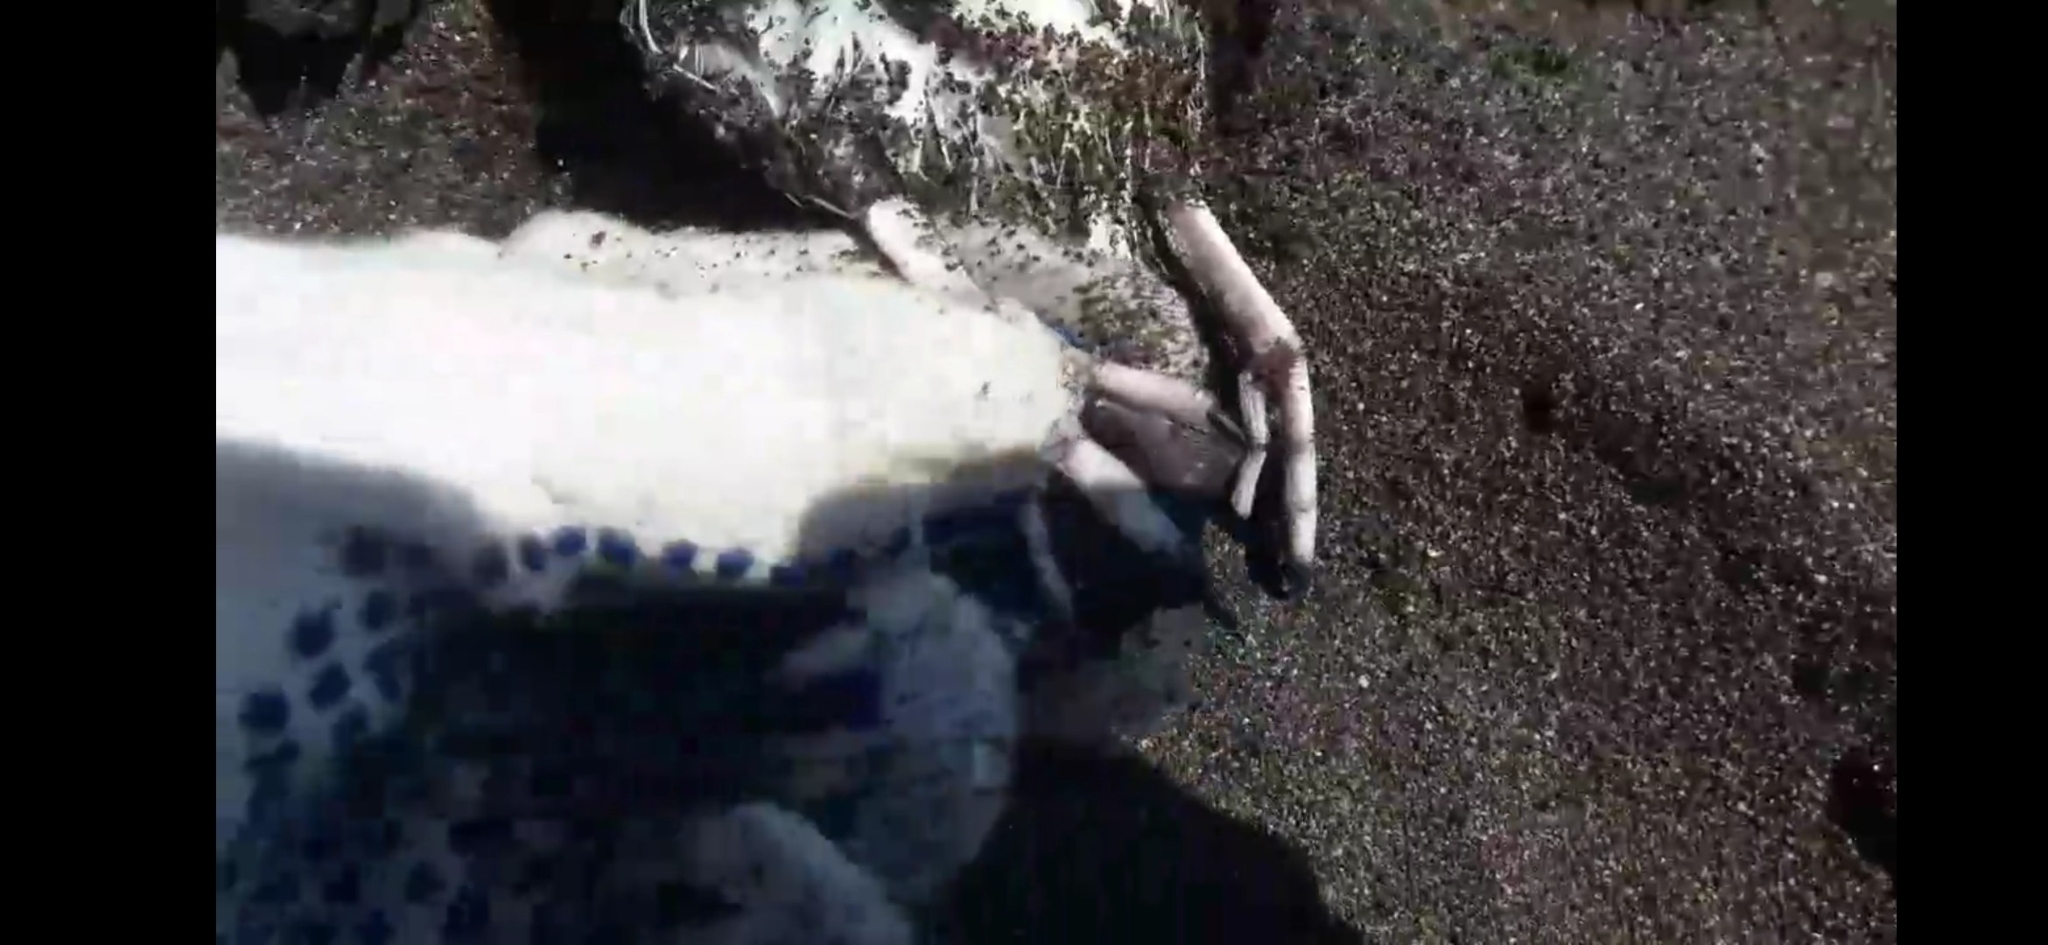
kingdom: Animalia
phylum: Chordata
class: Aves
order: Charadriiformes
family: Alcidae
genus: Synthliboramphus
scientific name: Synthliboramphus antiquus
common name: Ancient murrelet
